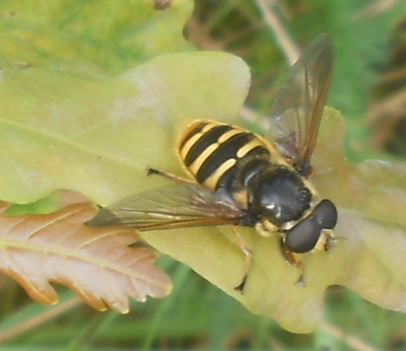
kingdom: Animalia
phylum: Arthropoda
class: Insecta
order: Diptera
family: Syrphidae
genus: Sericomyia
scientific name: Sericomyia silentis
